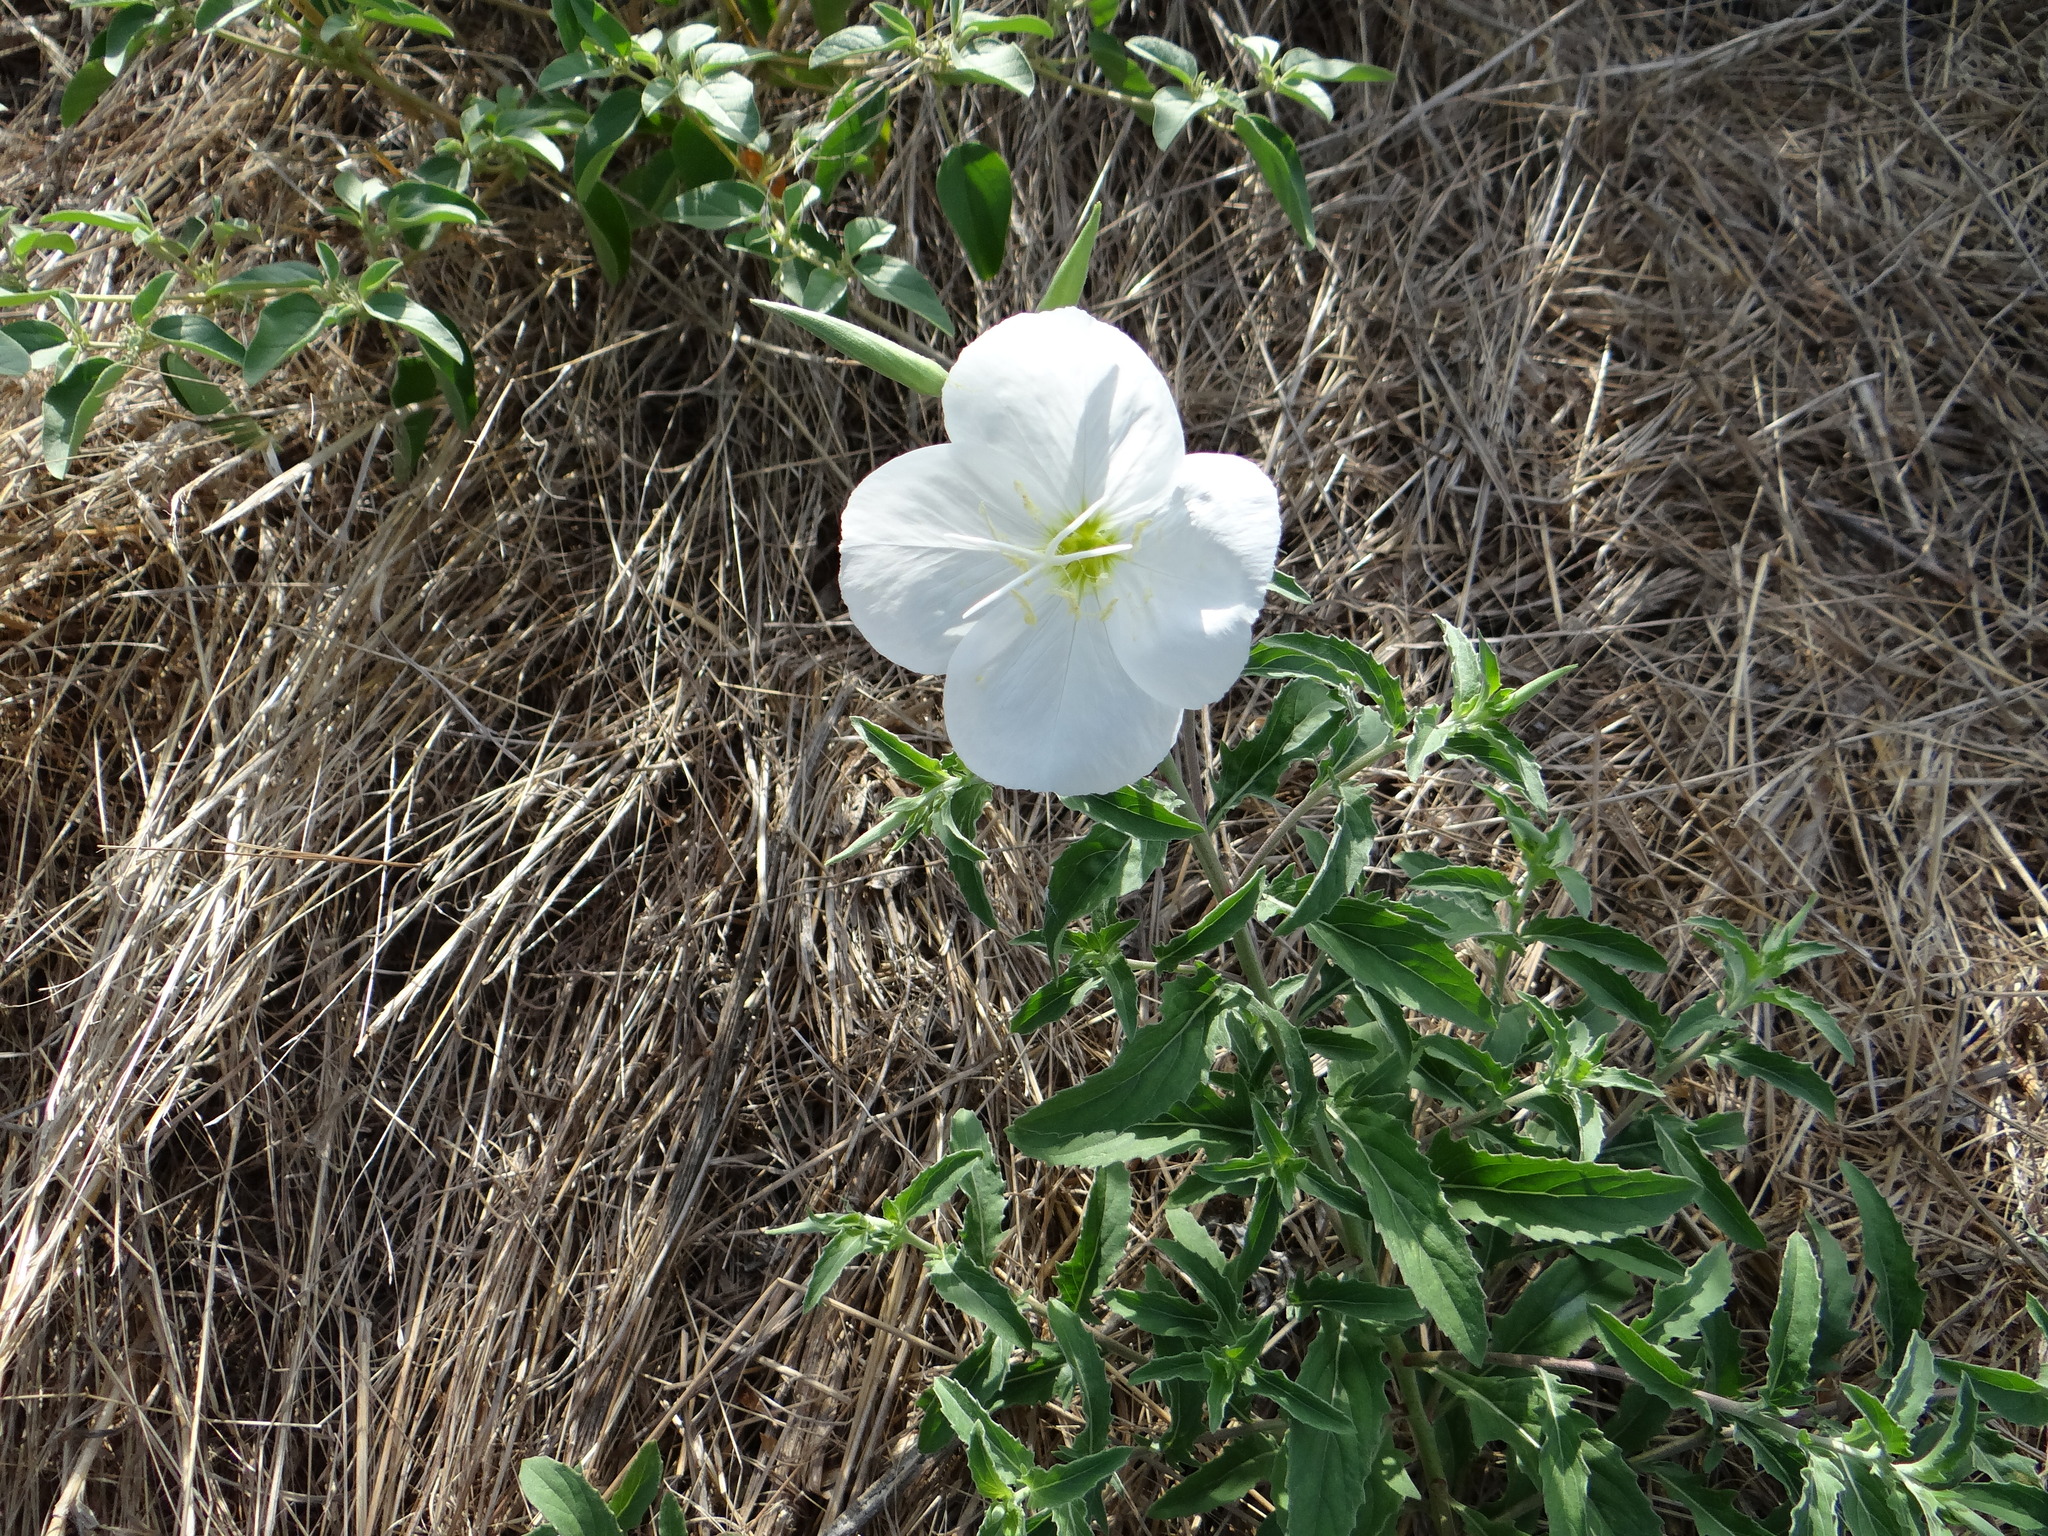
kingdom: Plantae
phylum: Tracheophyta
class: Magnoliopsida
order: Myrtales
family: Onagraceae
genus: Oenothera
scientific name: Oenothera speciosa
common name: White evening-primrose
